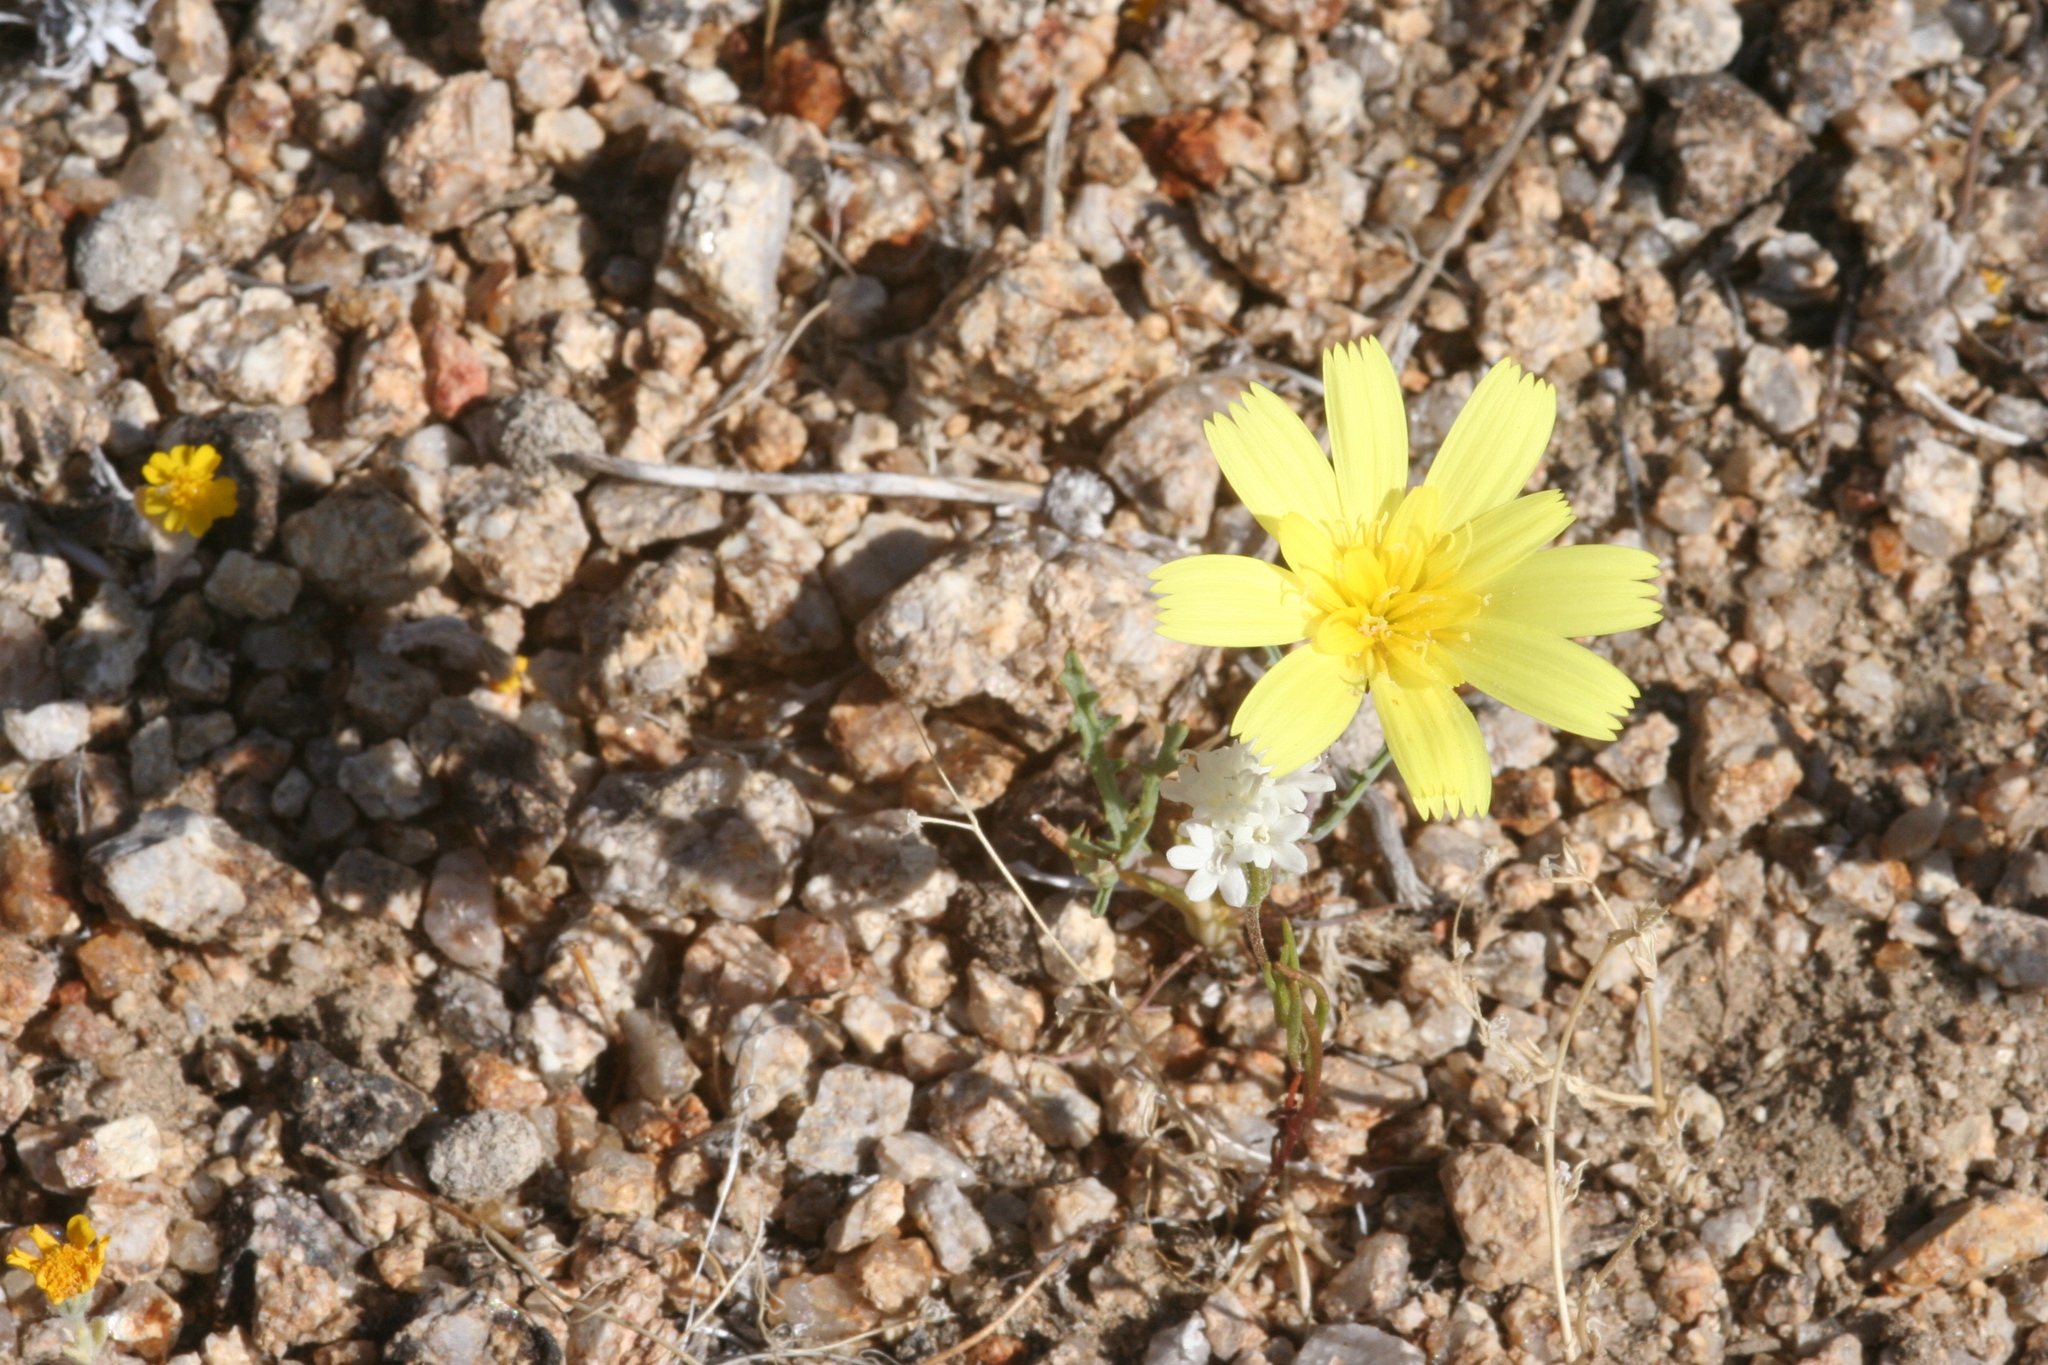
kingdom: Plantae
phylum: Tracheophyta
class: Magnoliopsida
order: Asterales
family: Asteraceae
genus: Anisocoma
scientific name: Anisocoma acaulis
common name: Scalebud
